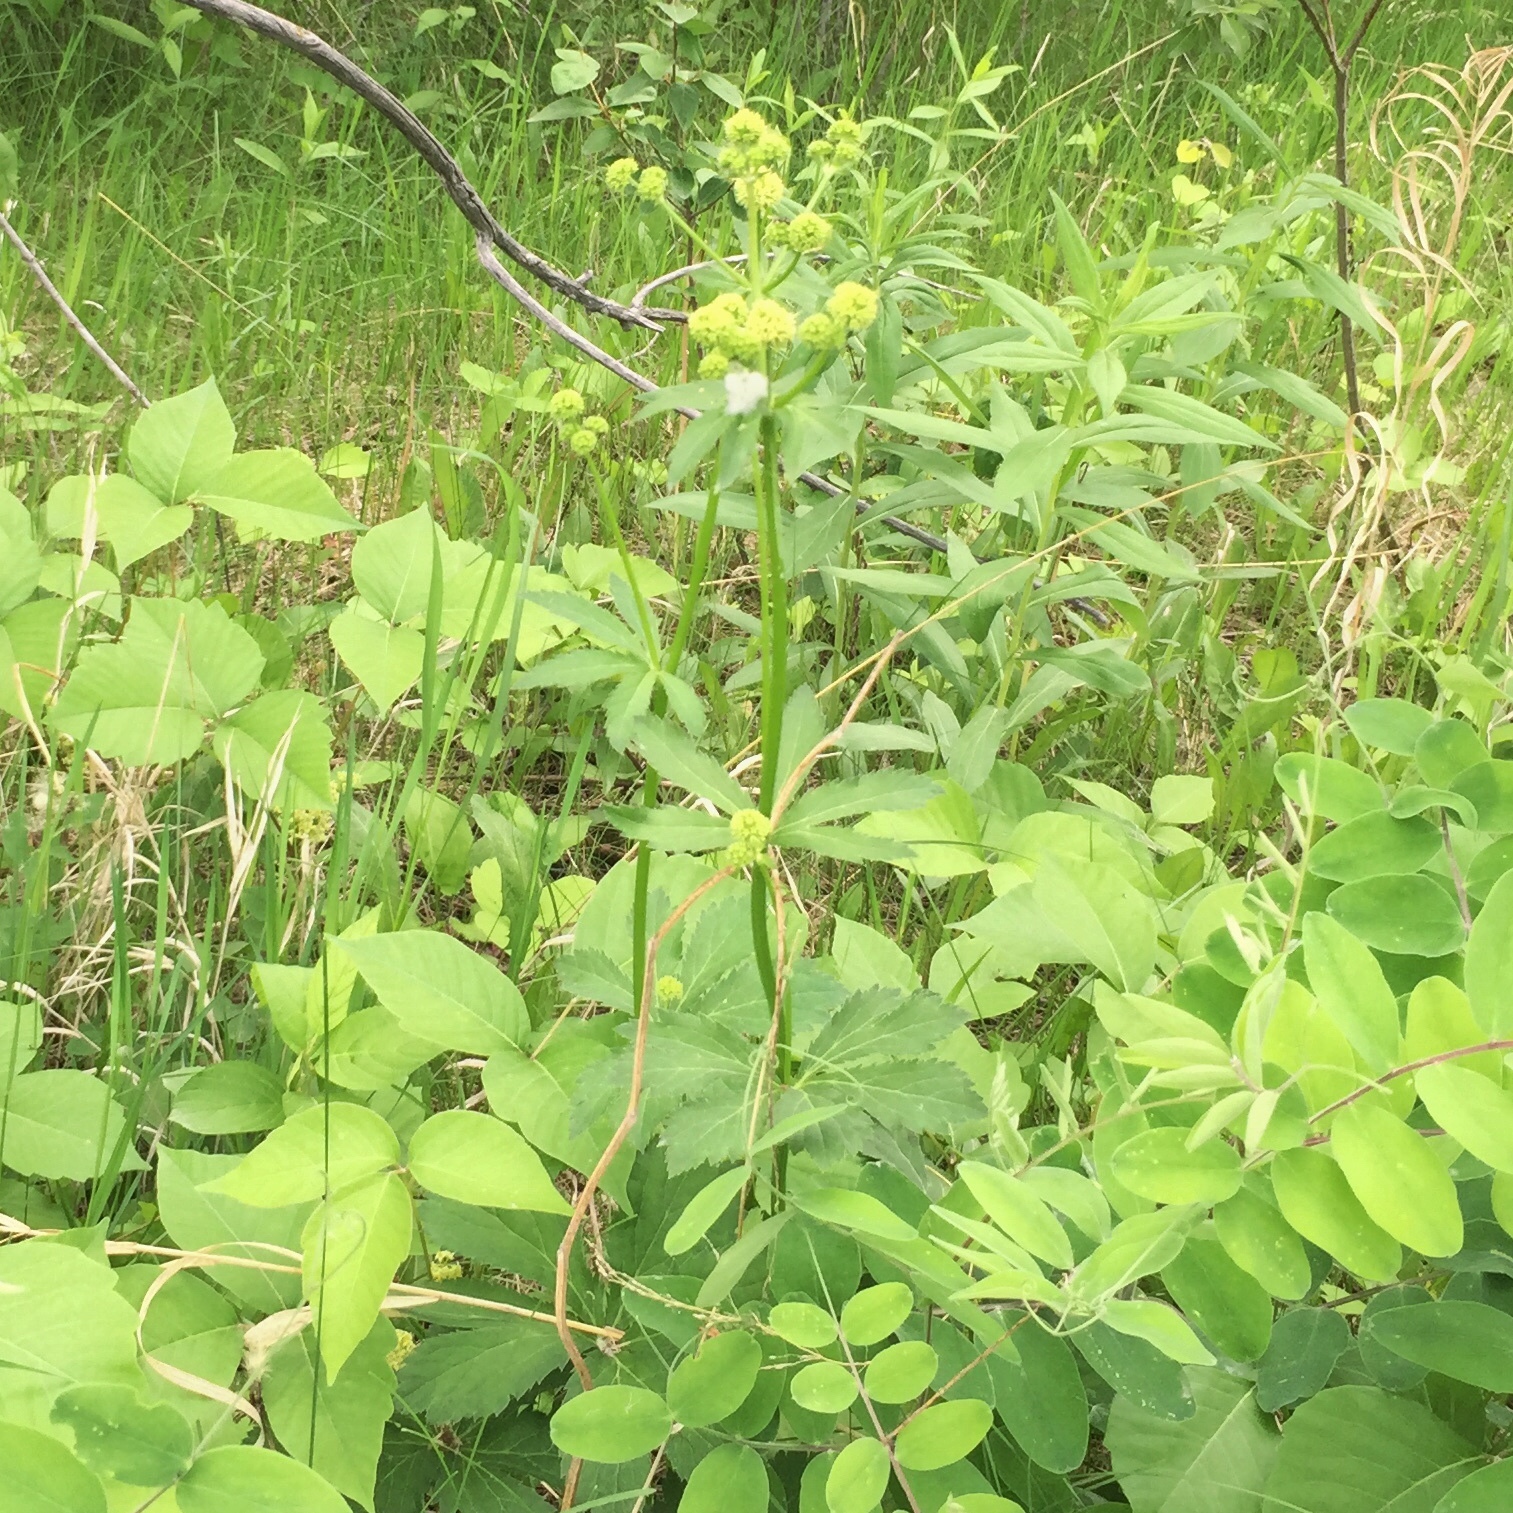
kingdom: Plantae
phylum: Tracheophyta
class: Magnoliopsida
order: Apiales
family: Apiaceae
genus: Sanicula
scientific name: Sanicula marilandica
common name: Black snakeroot
